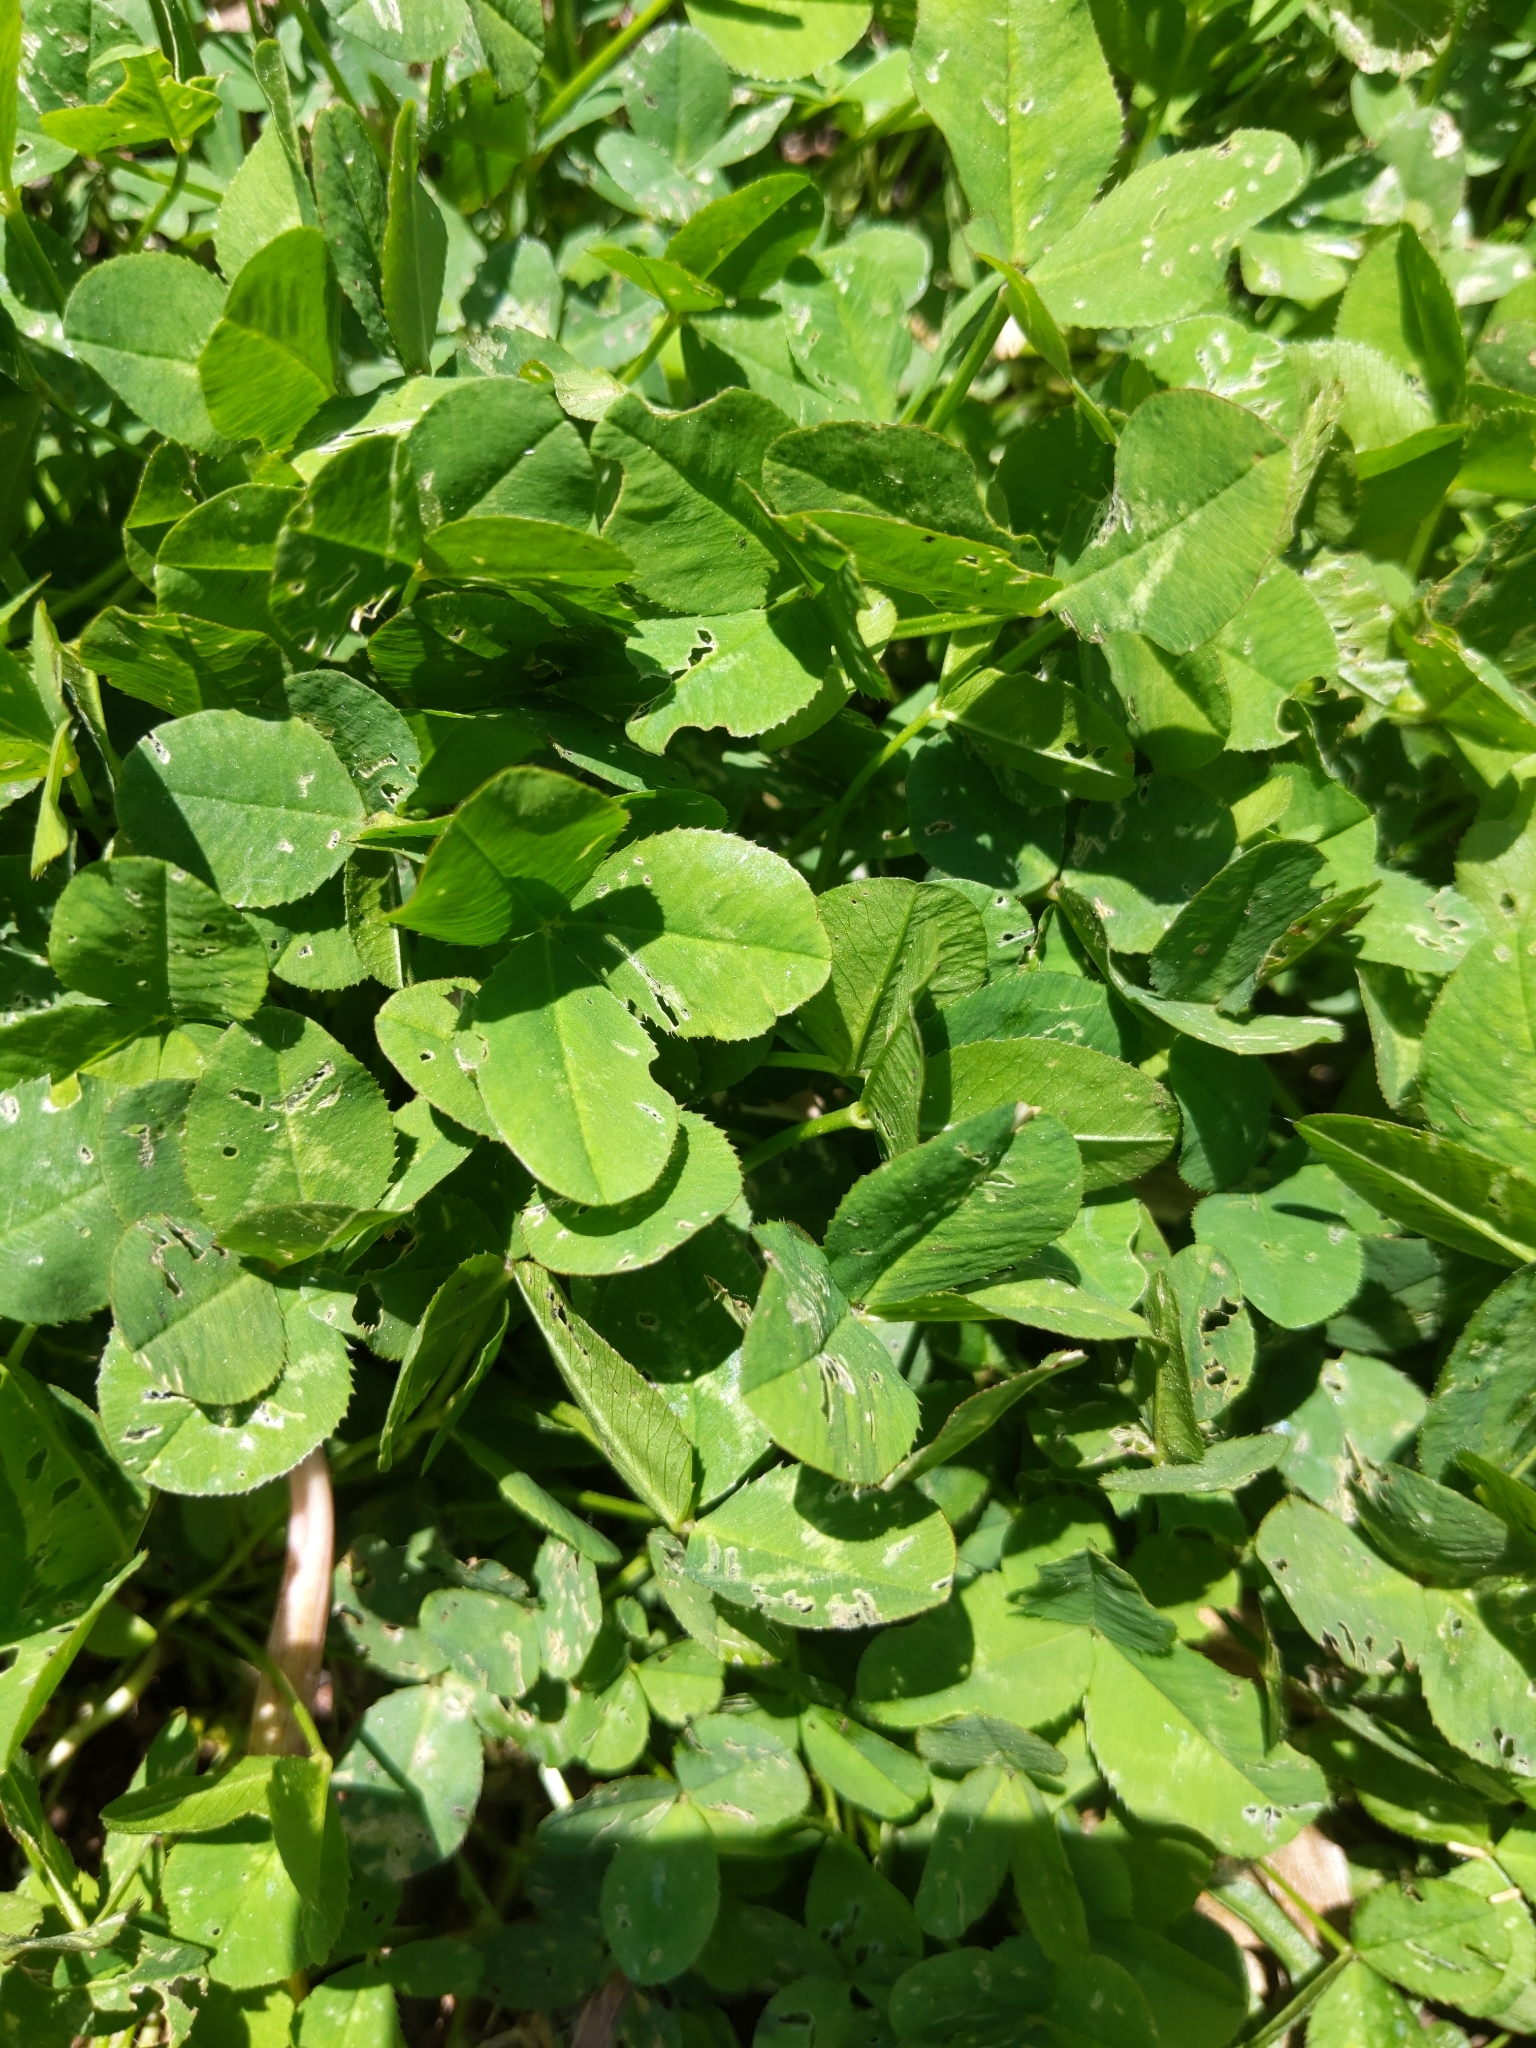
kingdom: Plantae
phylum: Tracheophyta
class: Magnoliopsida
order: Fabales
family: Fabaceae
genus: Trifolium
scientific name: Trifolium repens
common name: White clover
